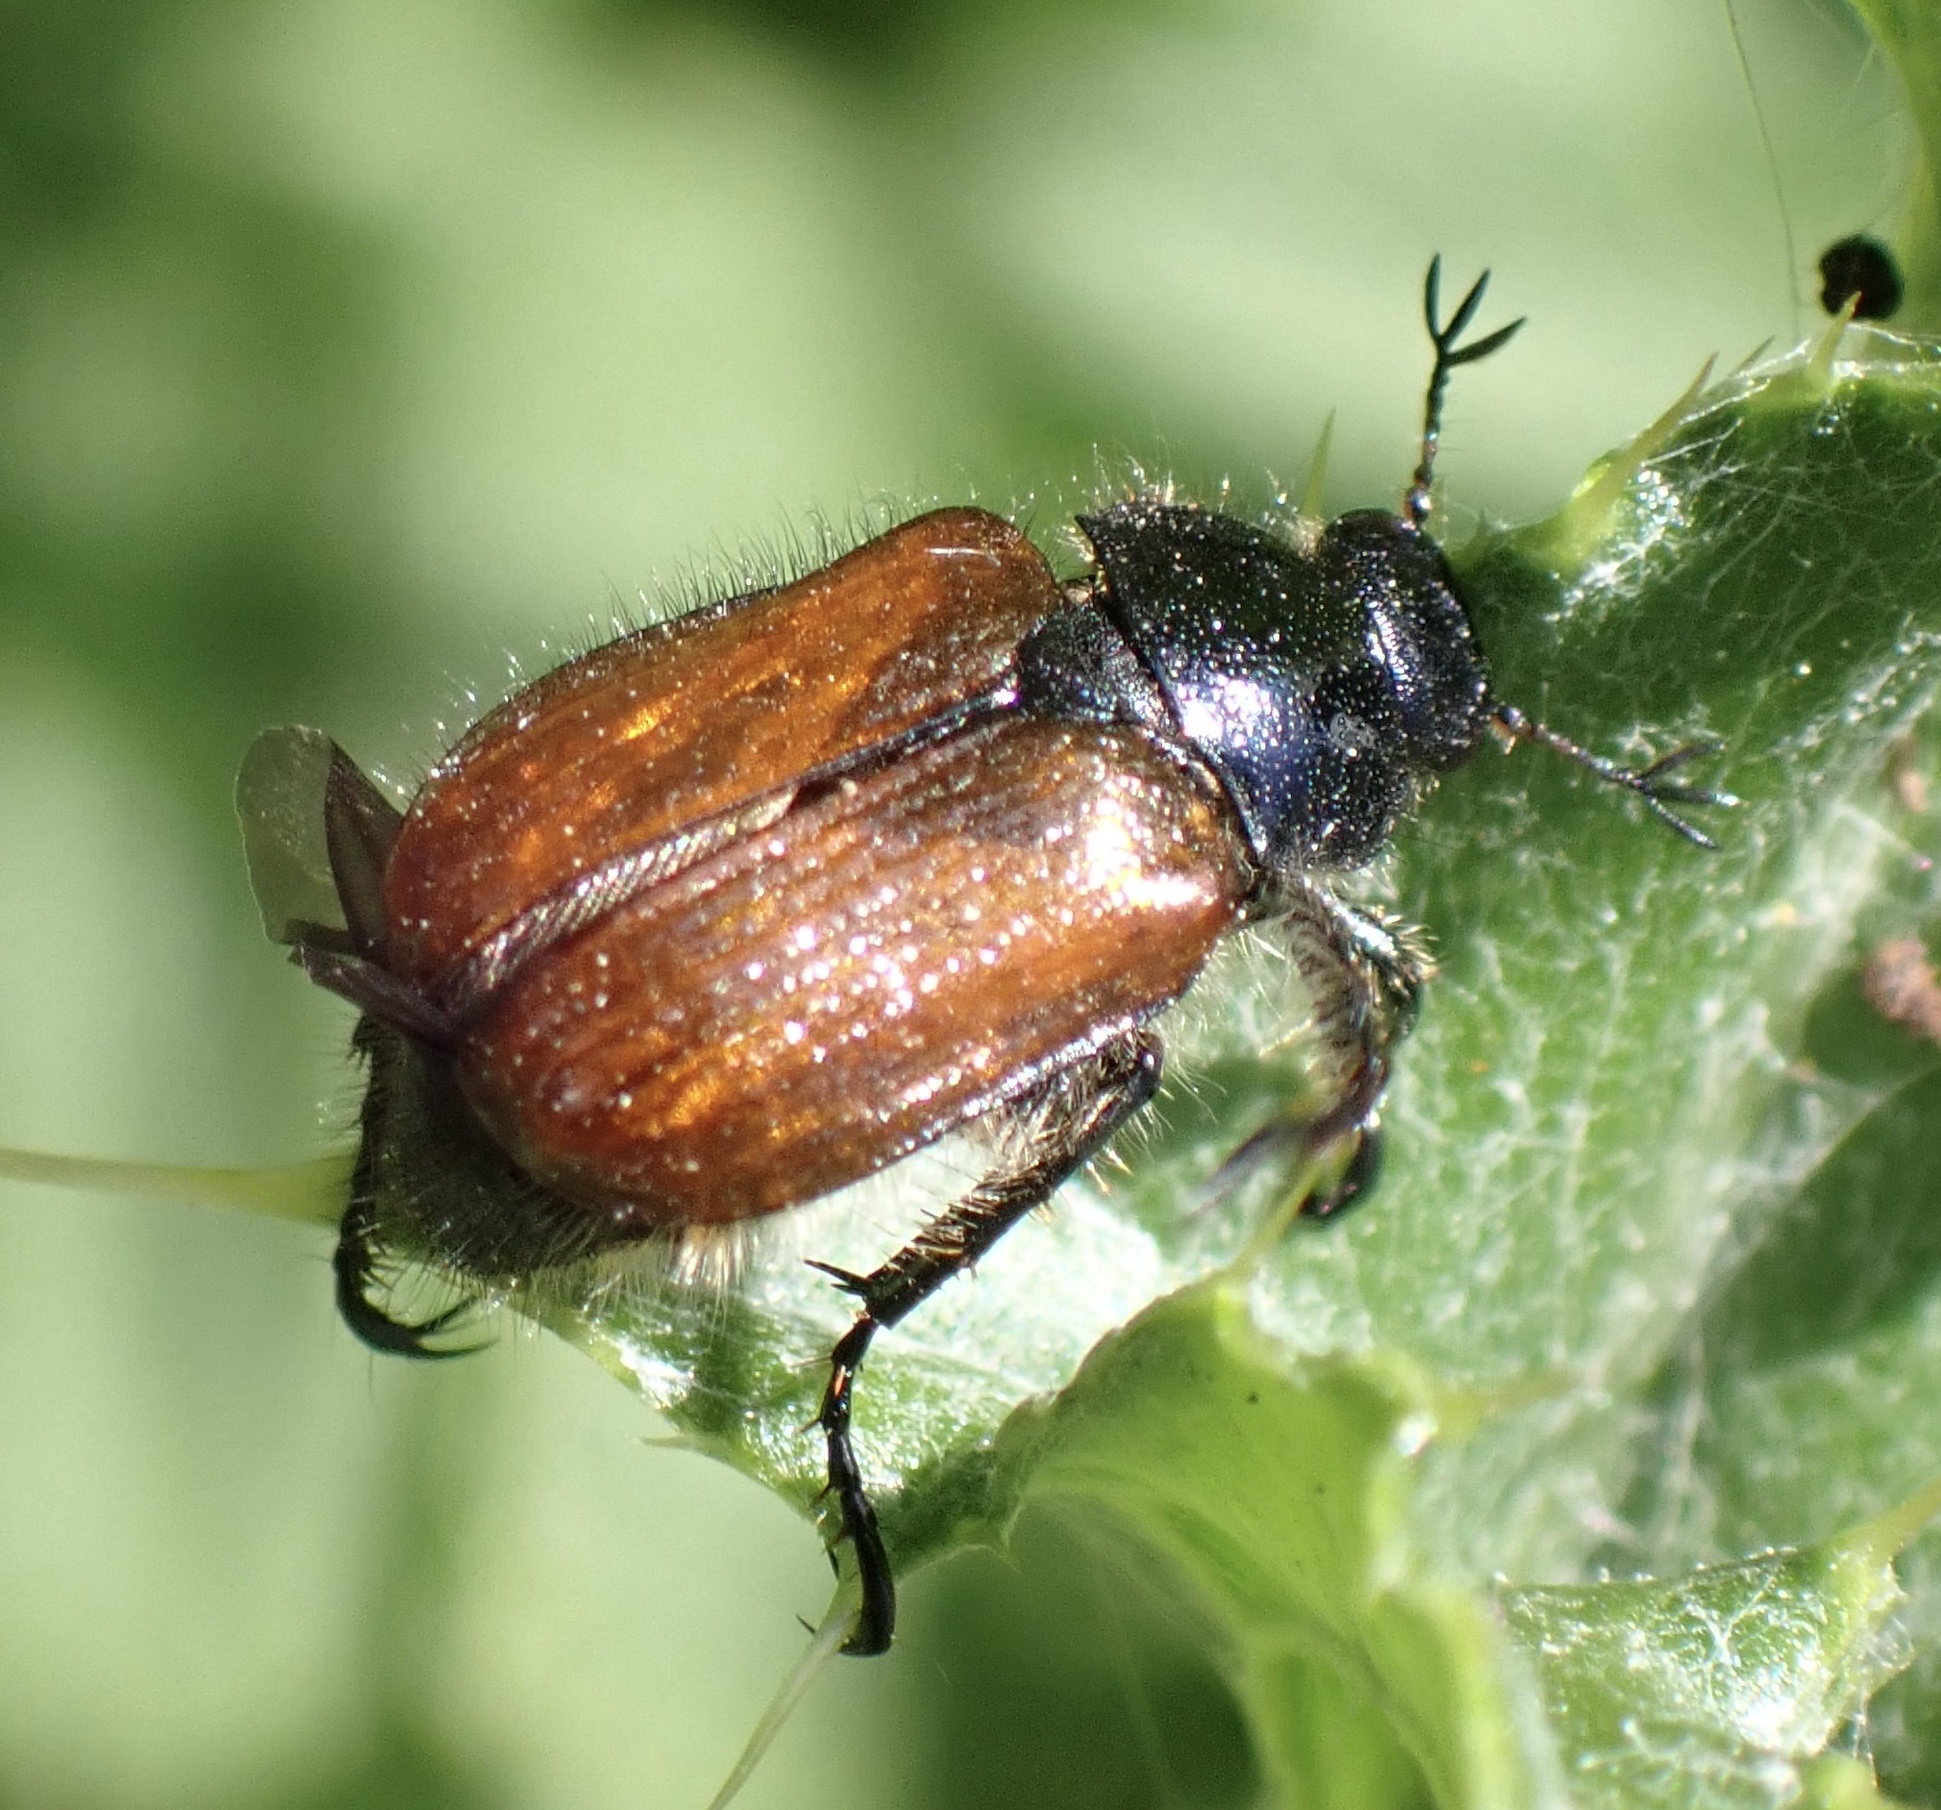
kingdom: Animalia
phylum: Arthropoda
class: Insecta
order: Coleoptera
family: Scarabaeidae
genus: Phyllopertha
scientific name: Phyllopertha horticola
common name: Garden chafer
